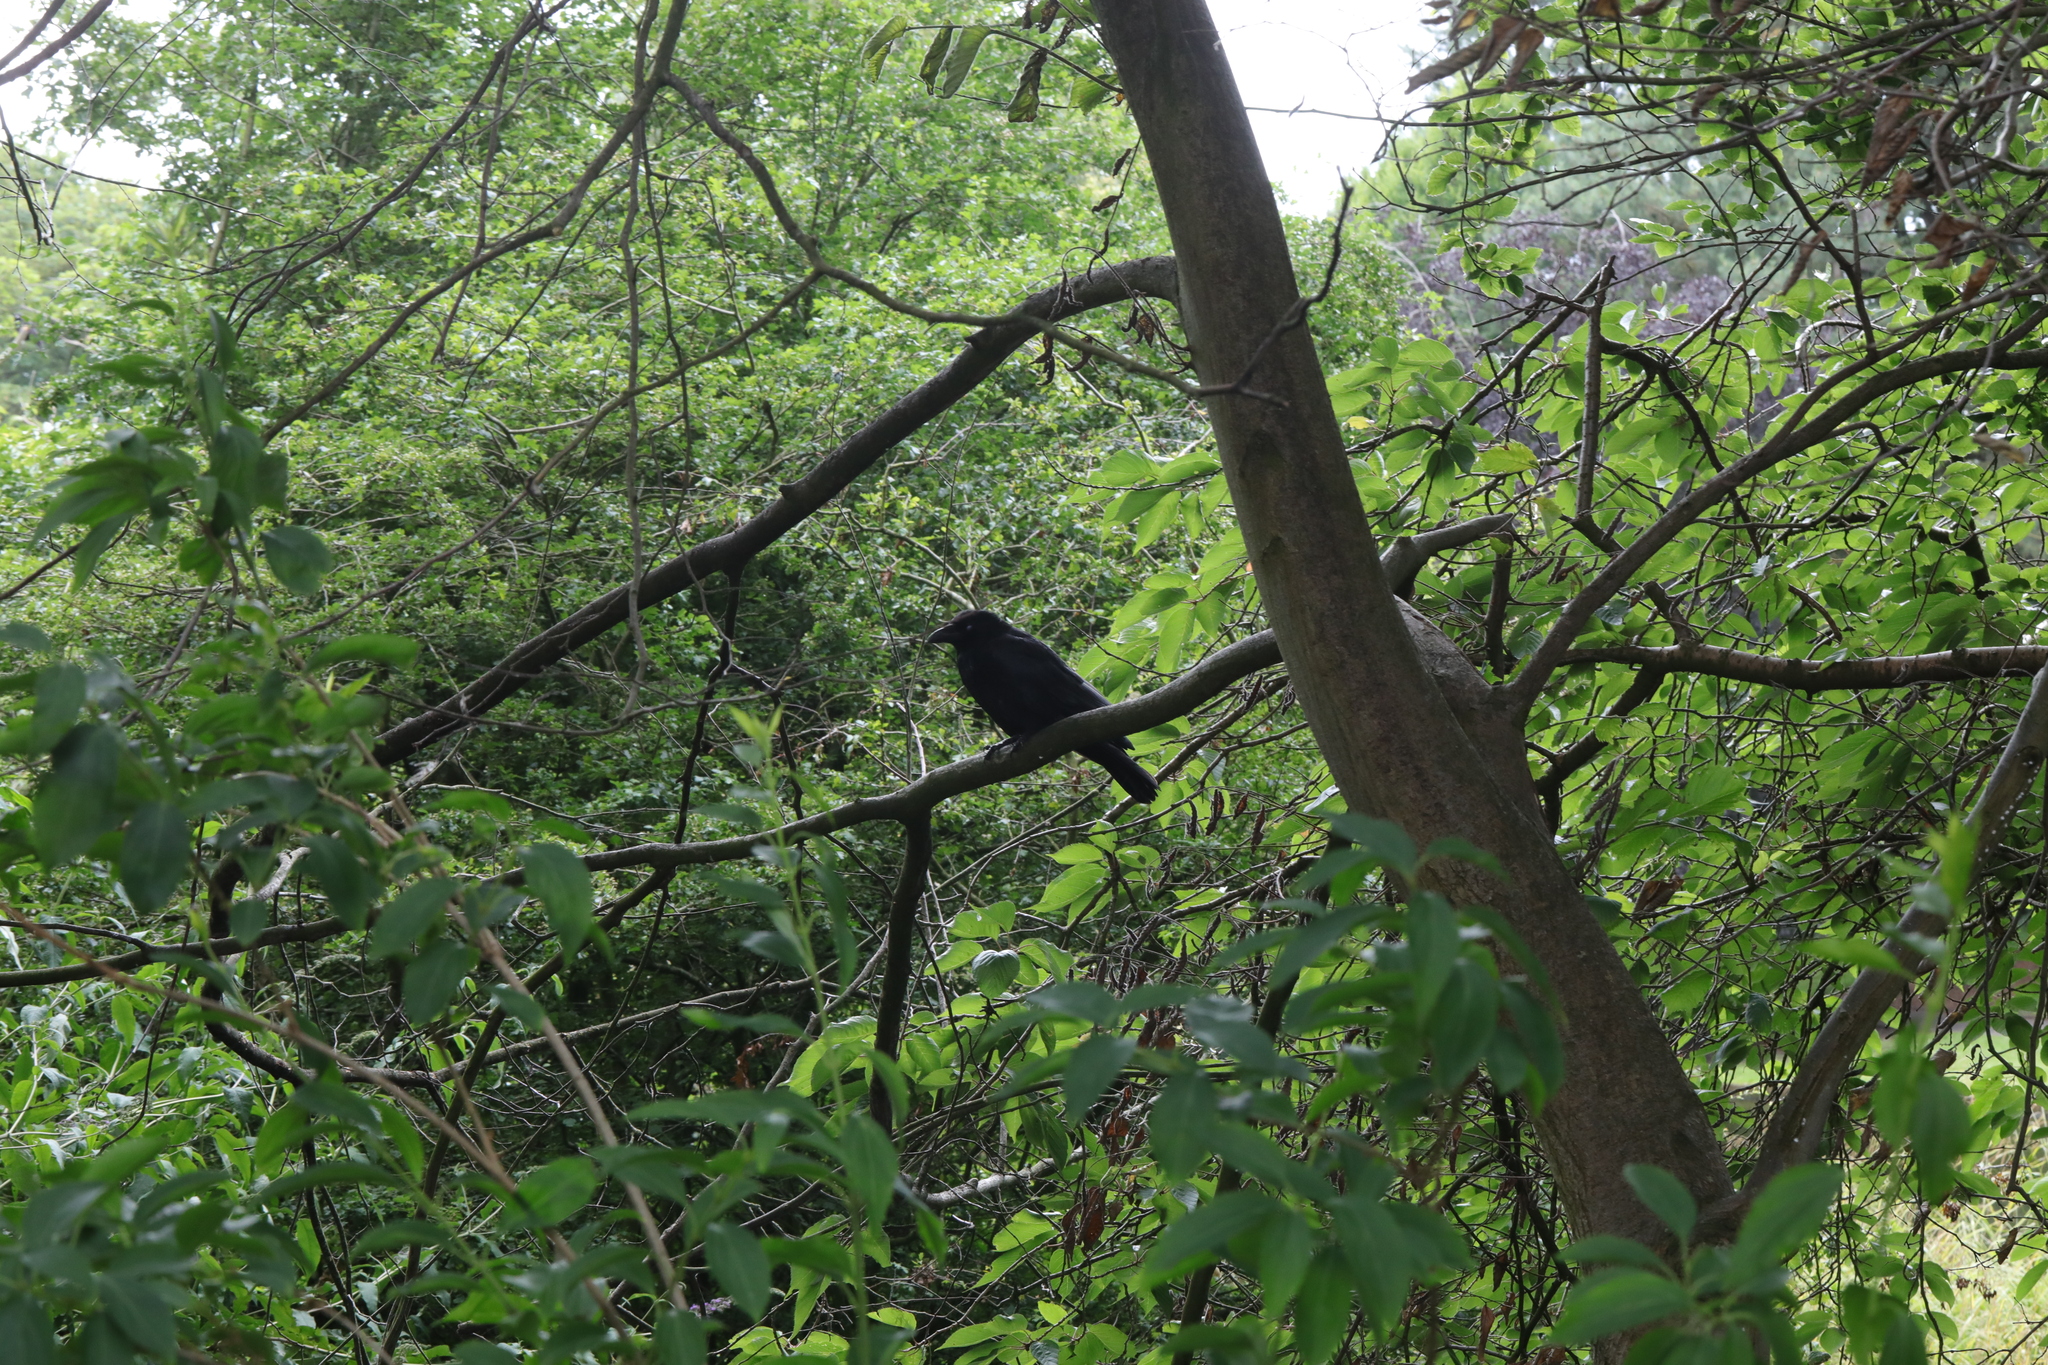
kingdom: Animalia
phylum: Chordata
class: Aves
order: Passeriformes
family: Corvidae
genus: Corvus
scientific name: Corvus corone
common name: Carrion crow
